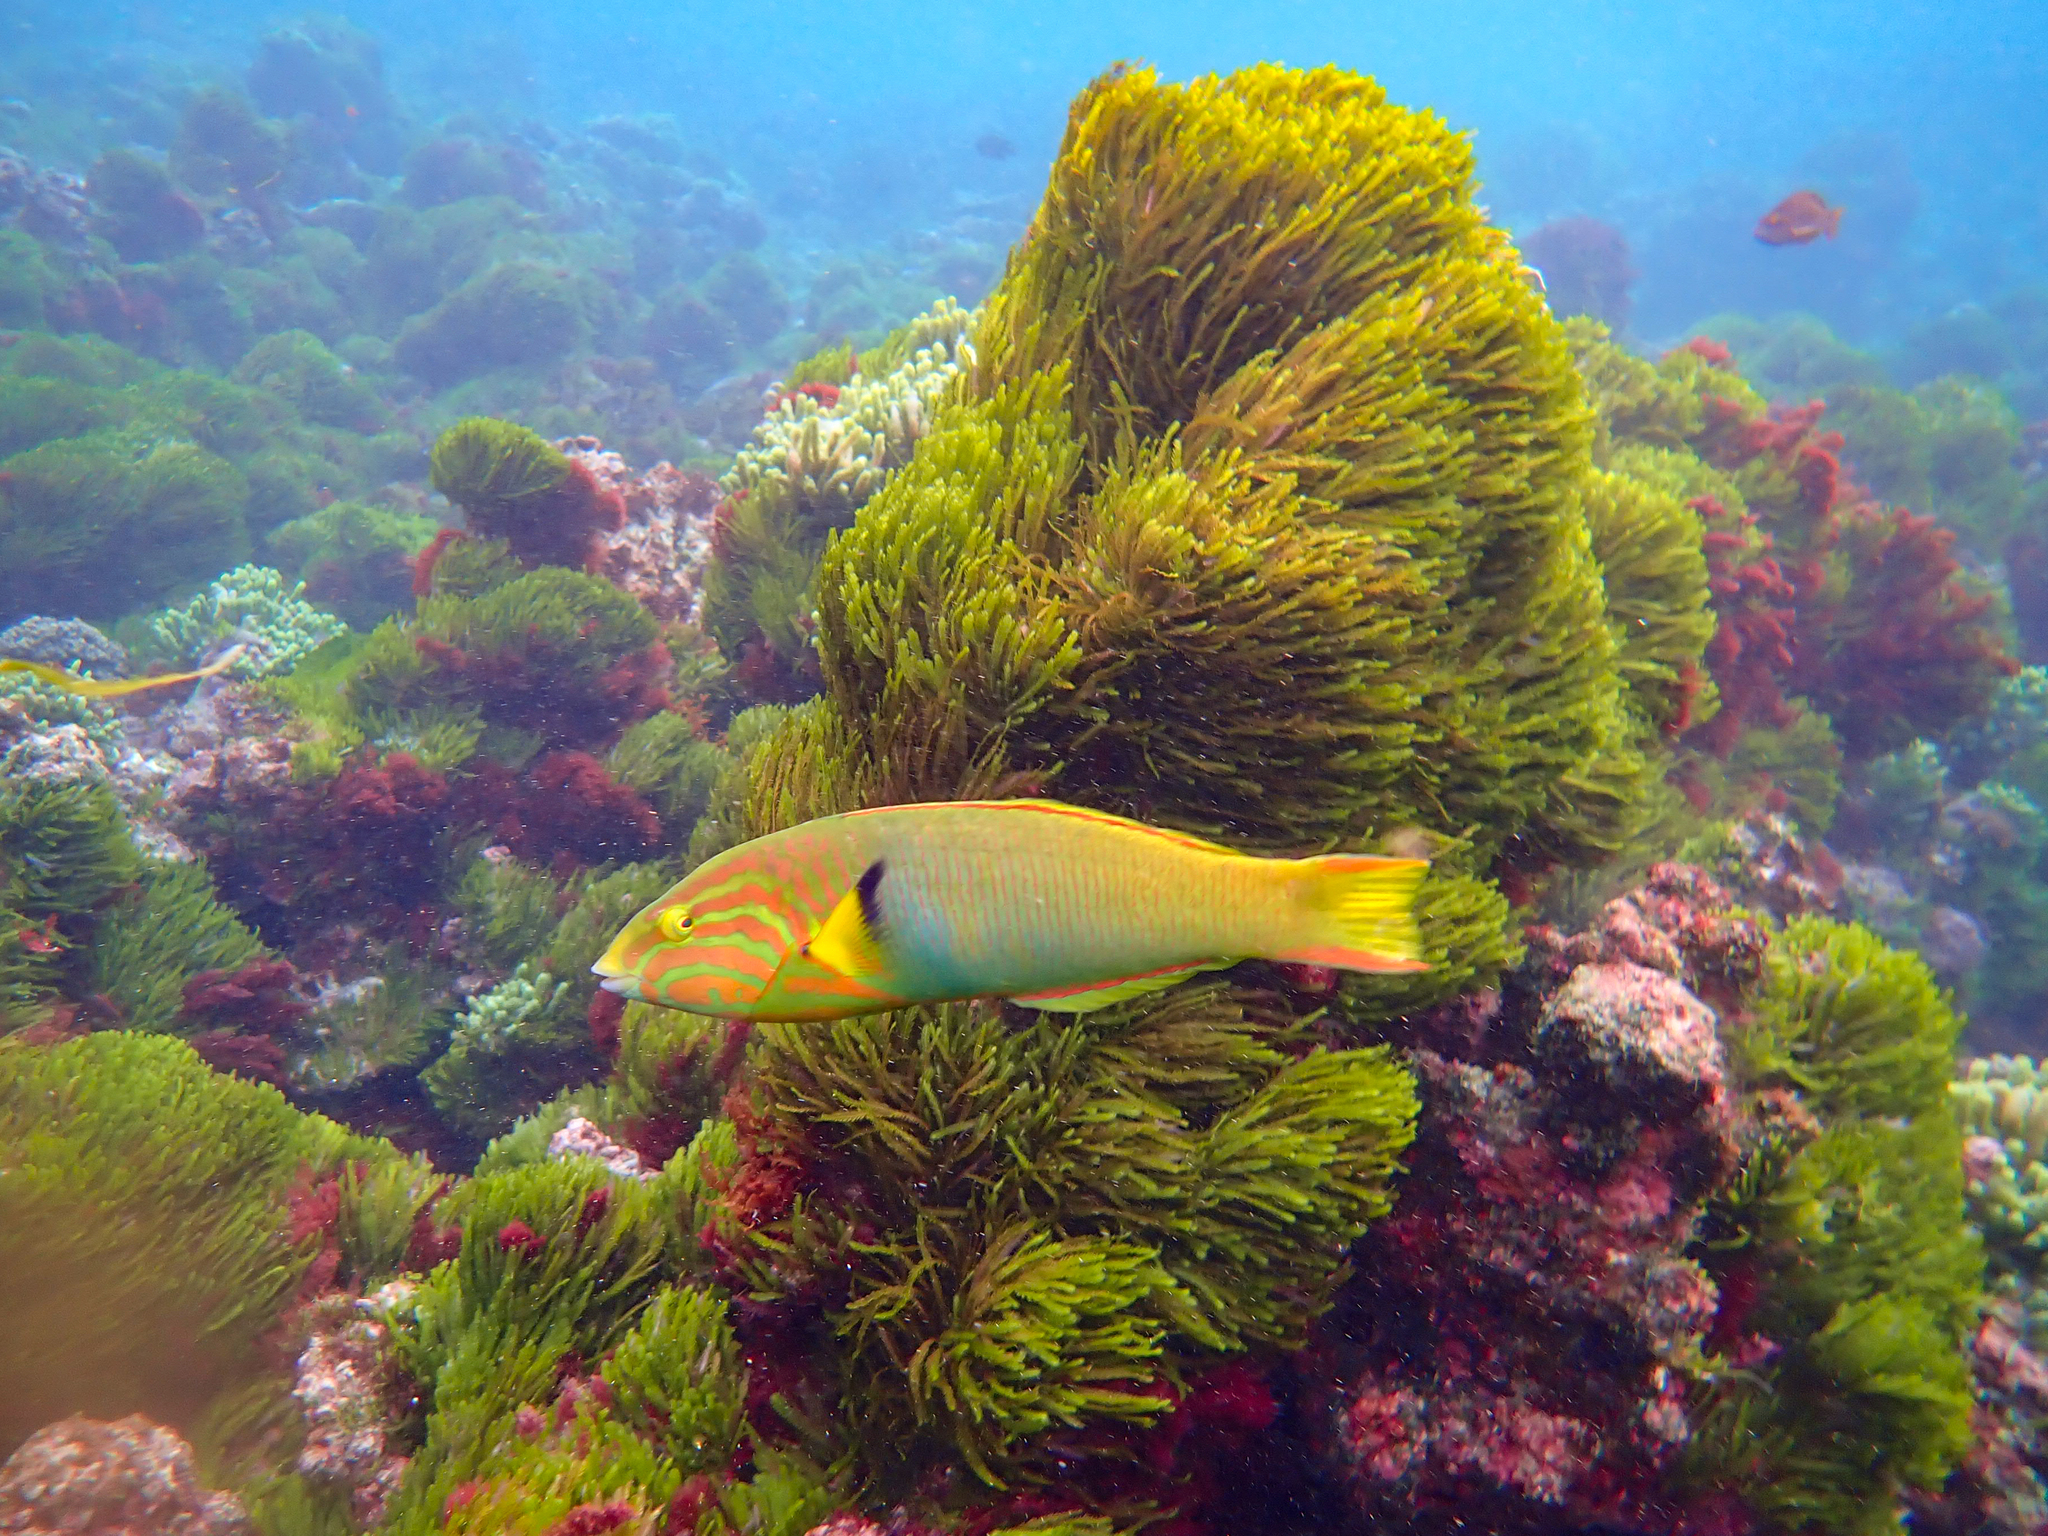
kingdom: Animalia
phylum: Chordata
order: Perciformes
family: Labridae
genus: Thalassoma
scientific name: Thalassoma lutescens
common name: Green moon wrasse
